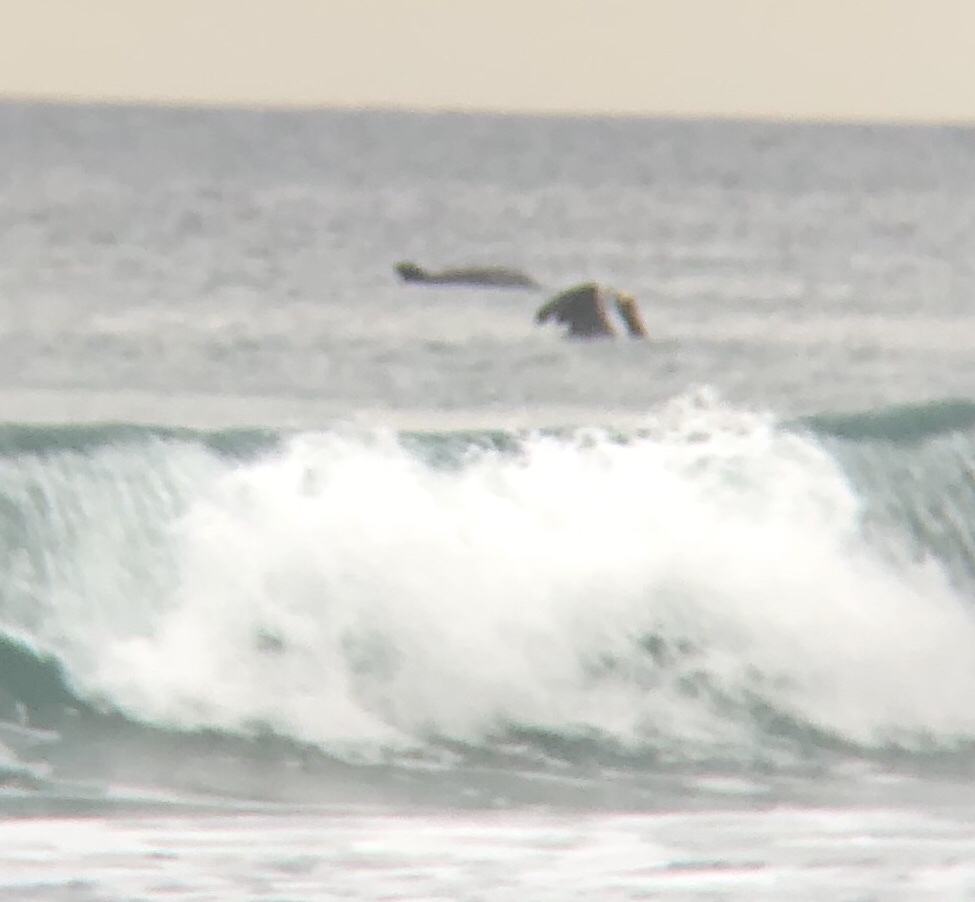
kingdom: Animalia
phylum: Chordata
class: Mammalia
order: Cetacea
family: Delphinidae
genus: Tursiops
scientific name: Tursiops truncatus
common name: Bottlenose dolphin
